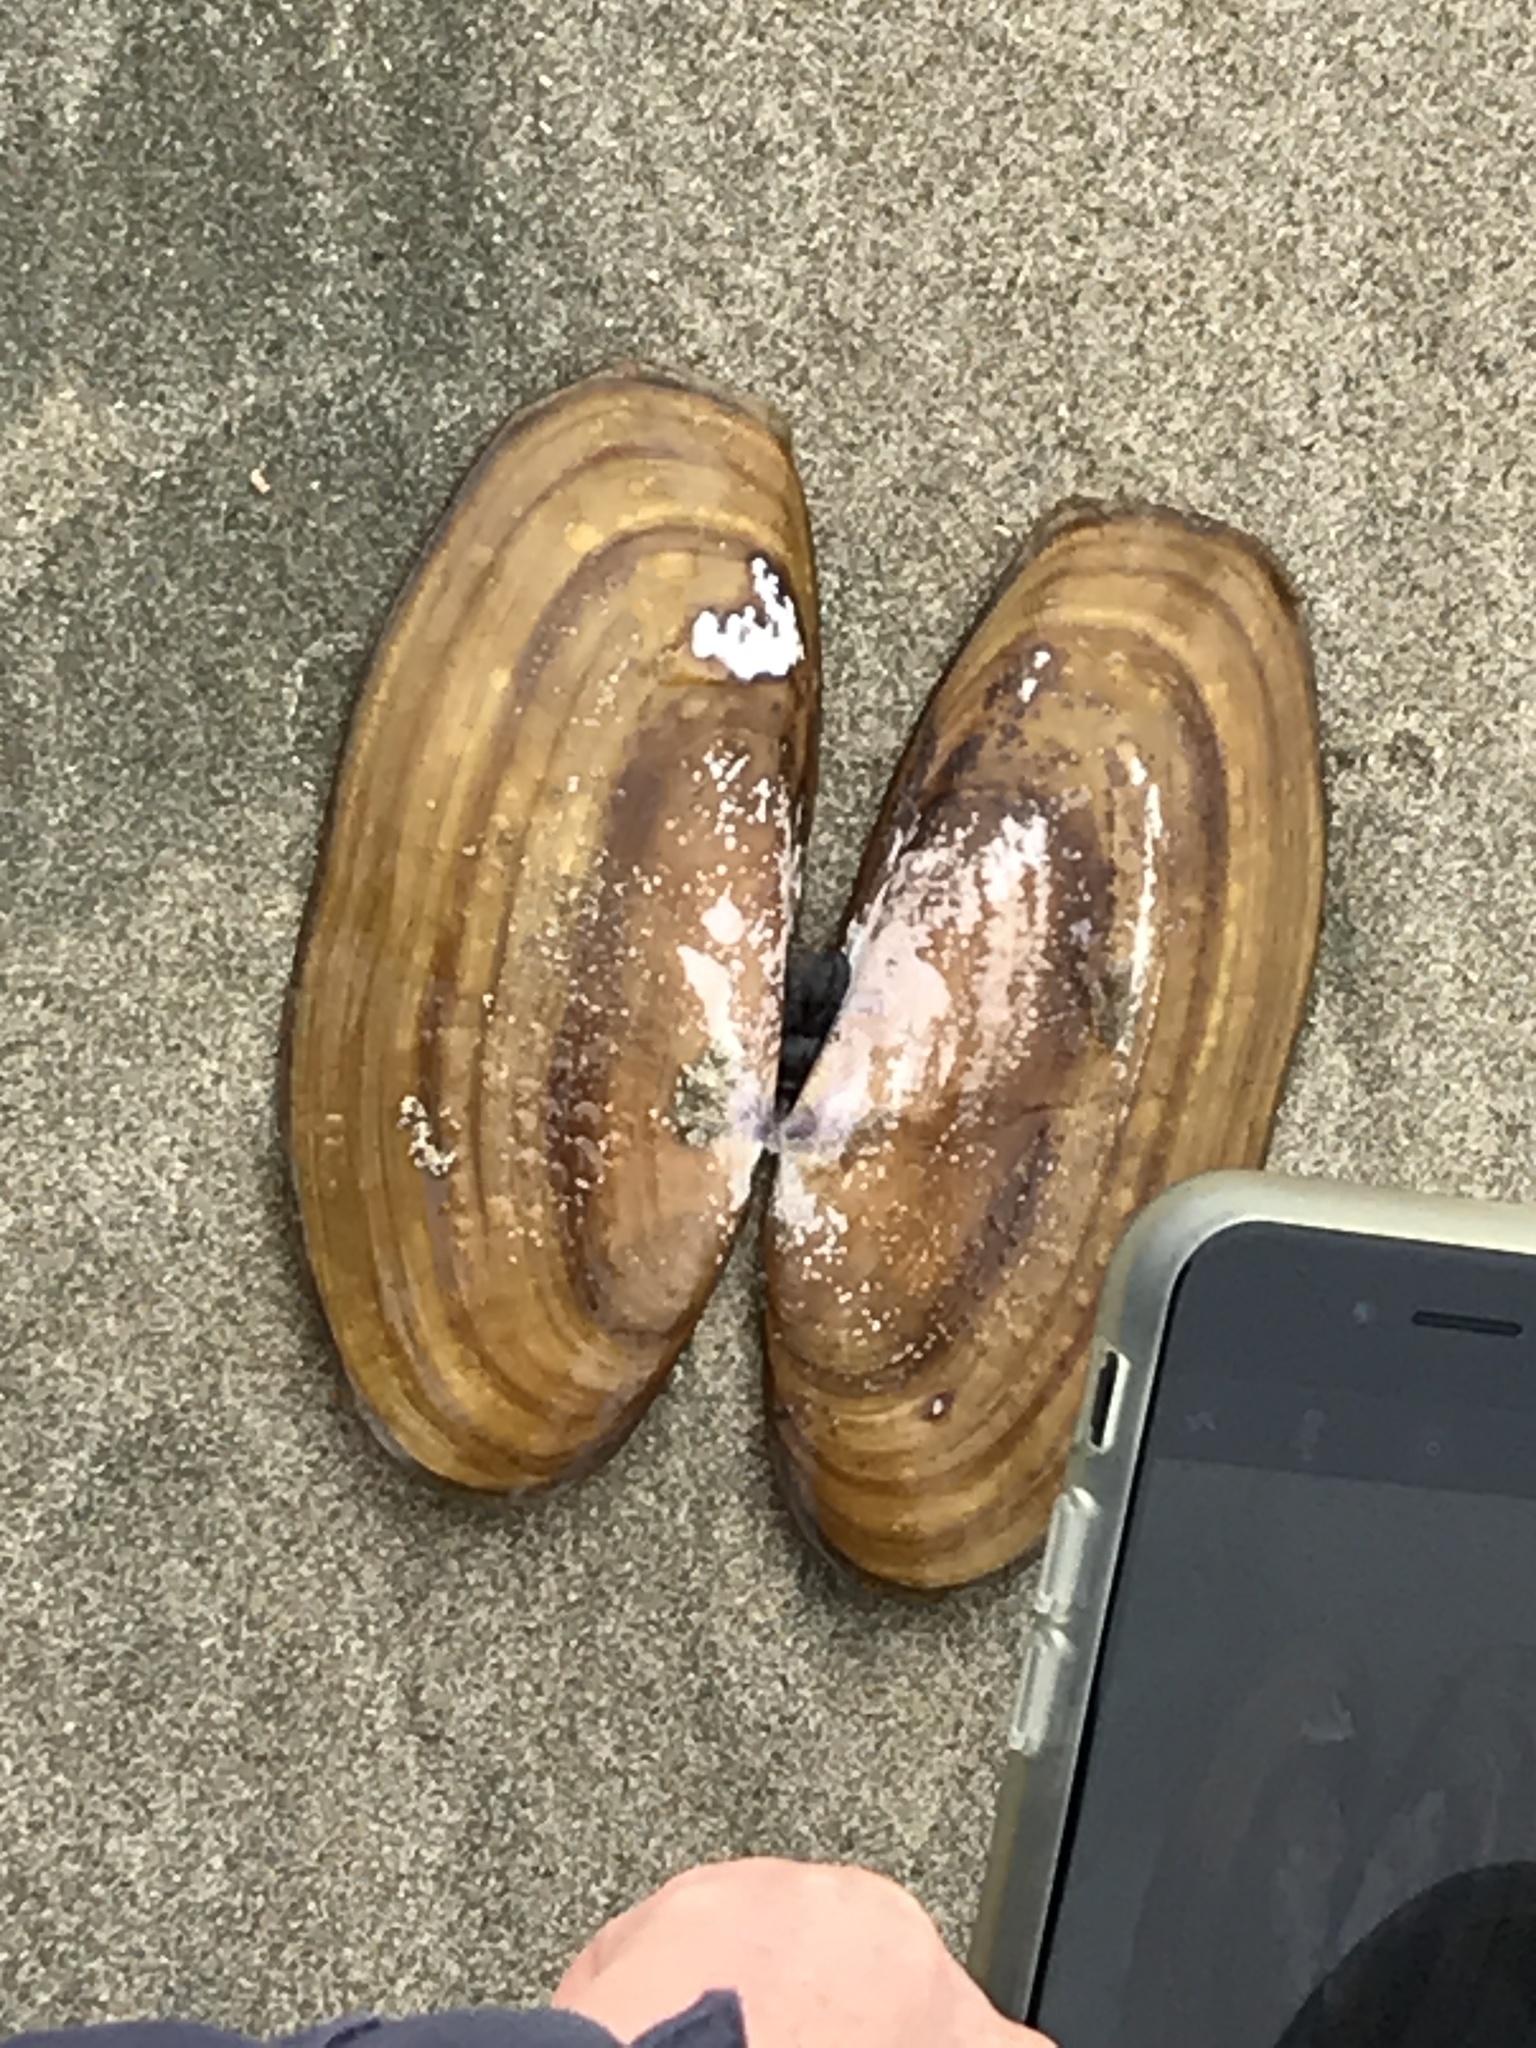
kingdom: Animalia
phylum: Mollusca
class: Bivalvia
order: Adapedonta
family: Pharidae
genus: Siliqua
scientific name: Siliqua patula
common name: Pacific razor clam
